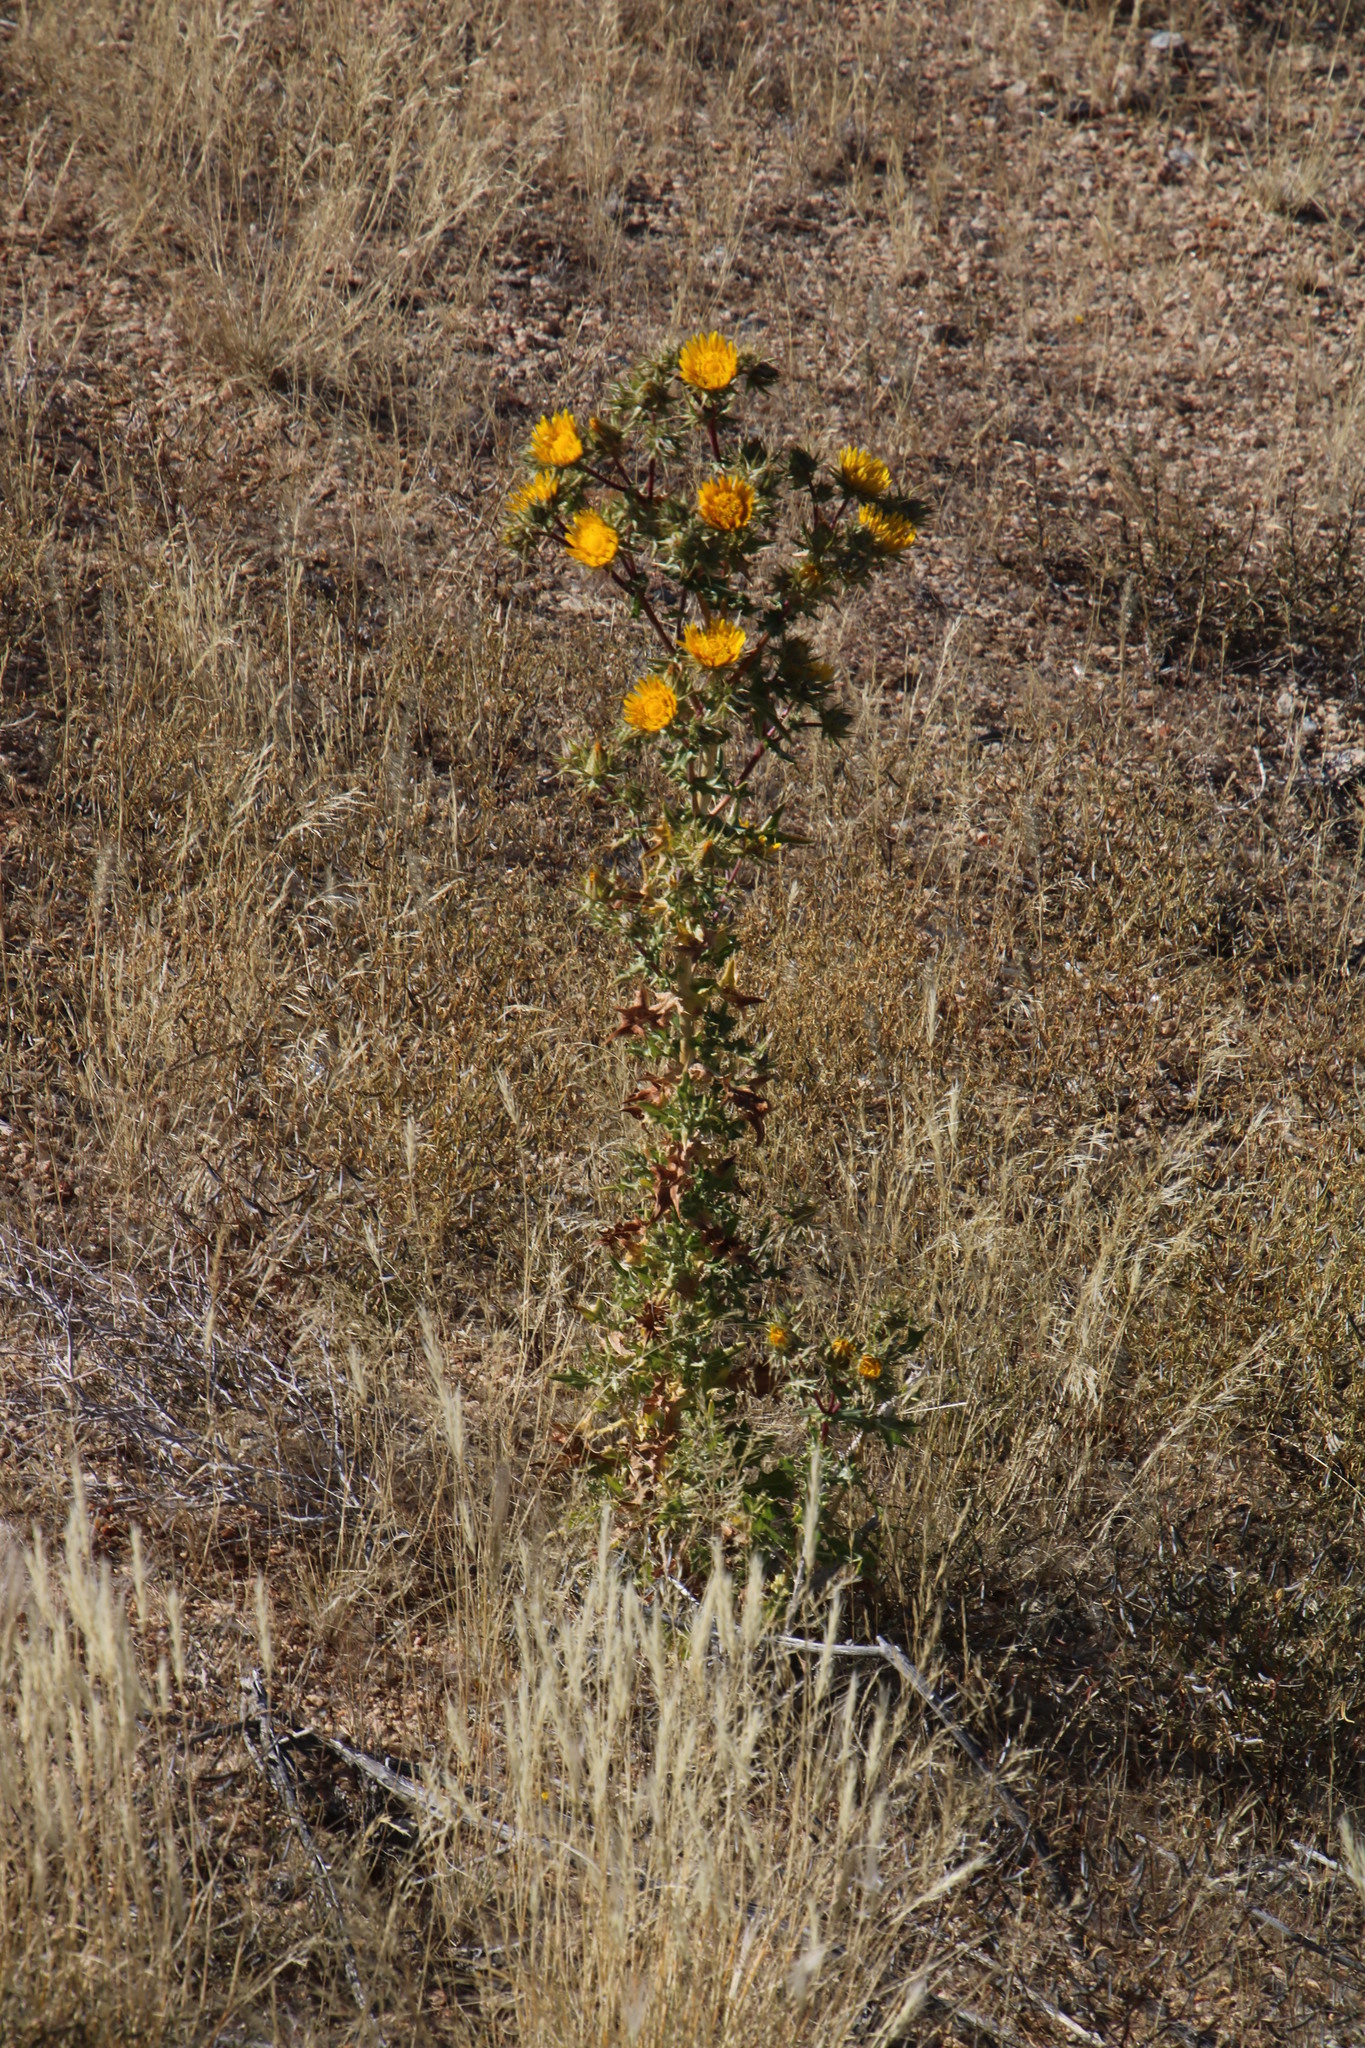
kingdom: Plantae
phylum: Tracheophyta
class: Magnoliopsida
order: Asterales
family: Asteraceae
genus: Berkheya
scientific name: Berkheya spinosissima
